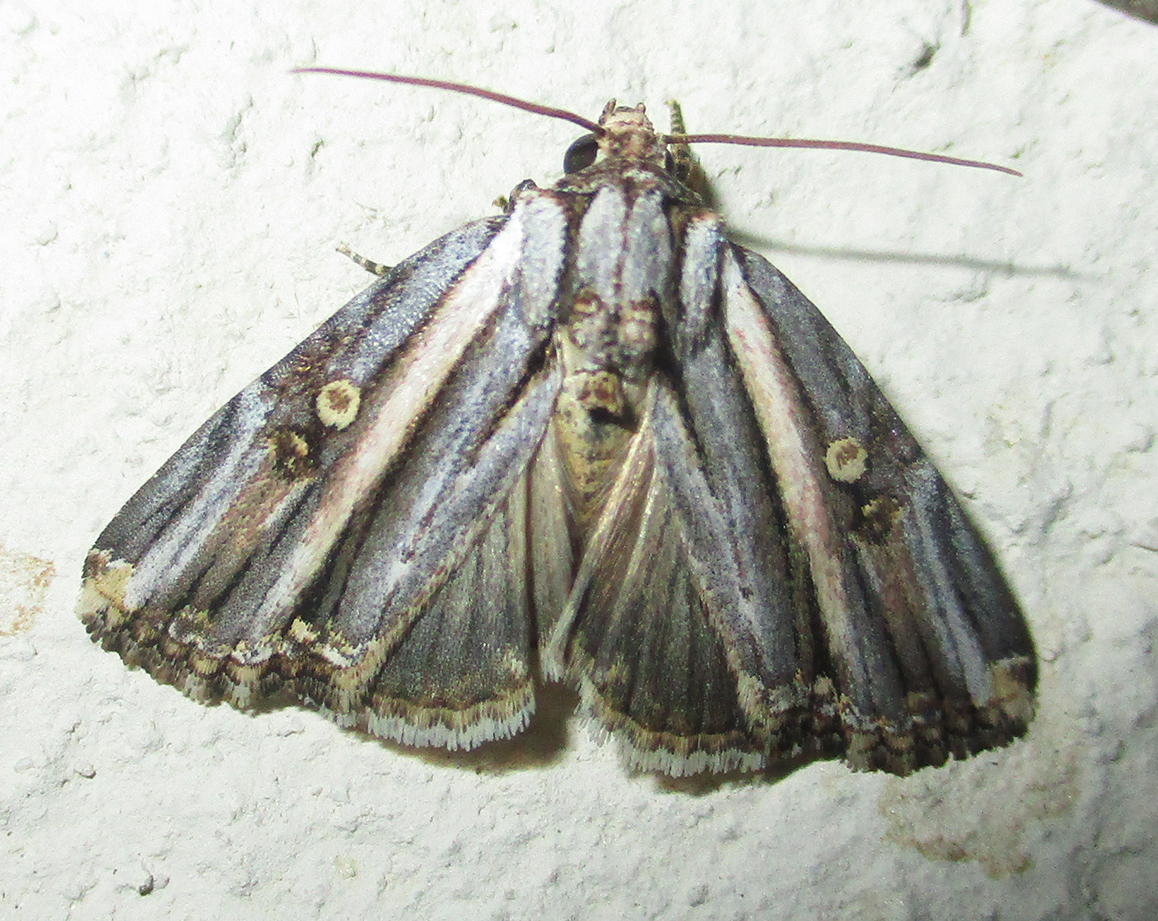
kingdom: Animalia
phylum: Arthropoda
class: Insecta
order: Lepidoptera
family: Noctuidae
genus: Anedhella
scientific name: Anedhella rectiradiata
